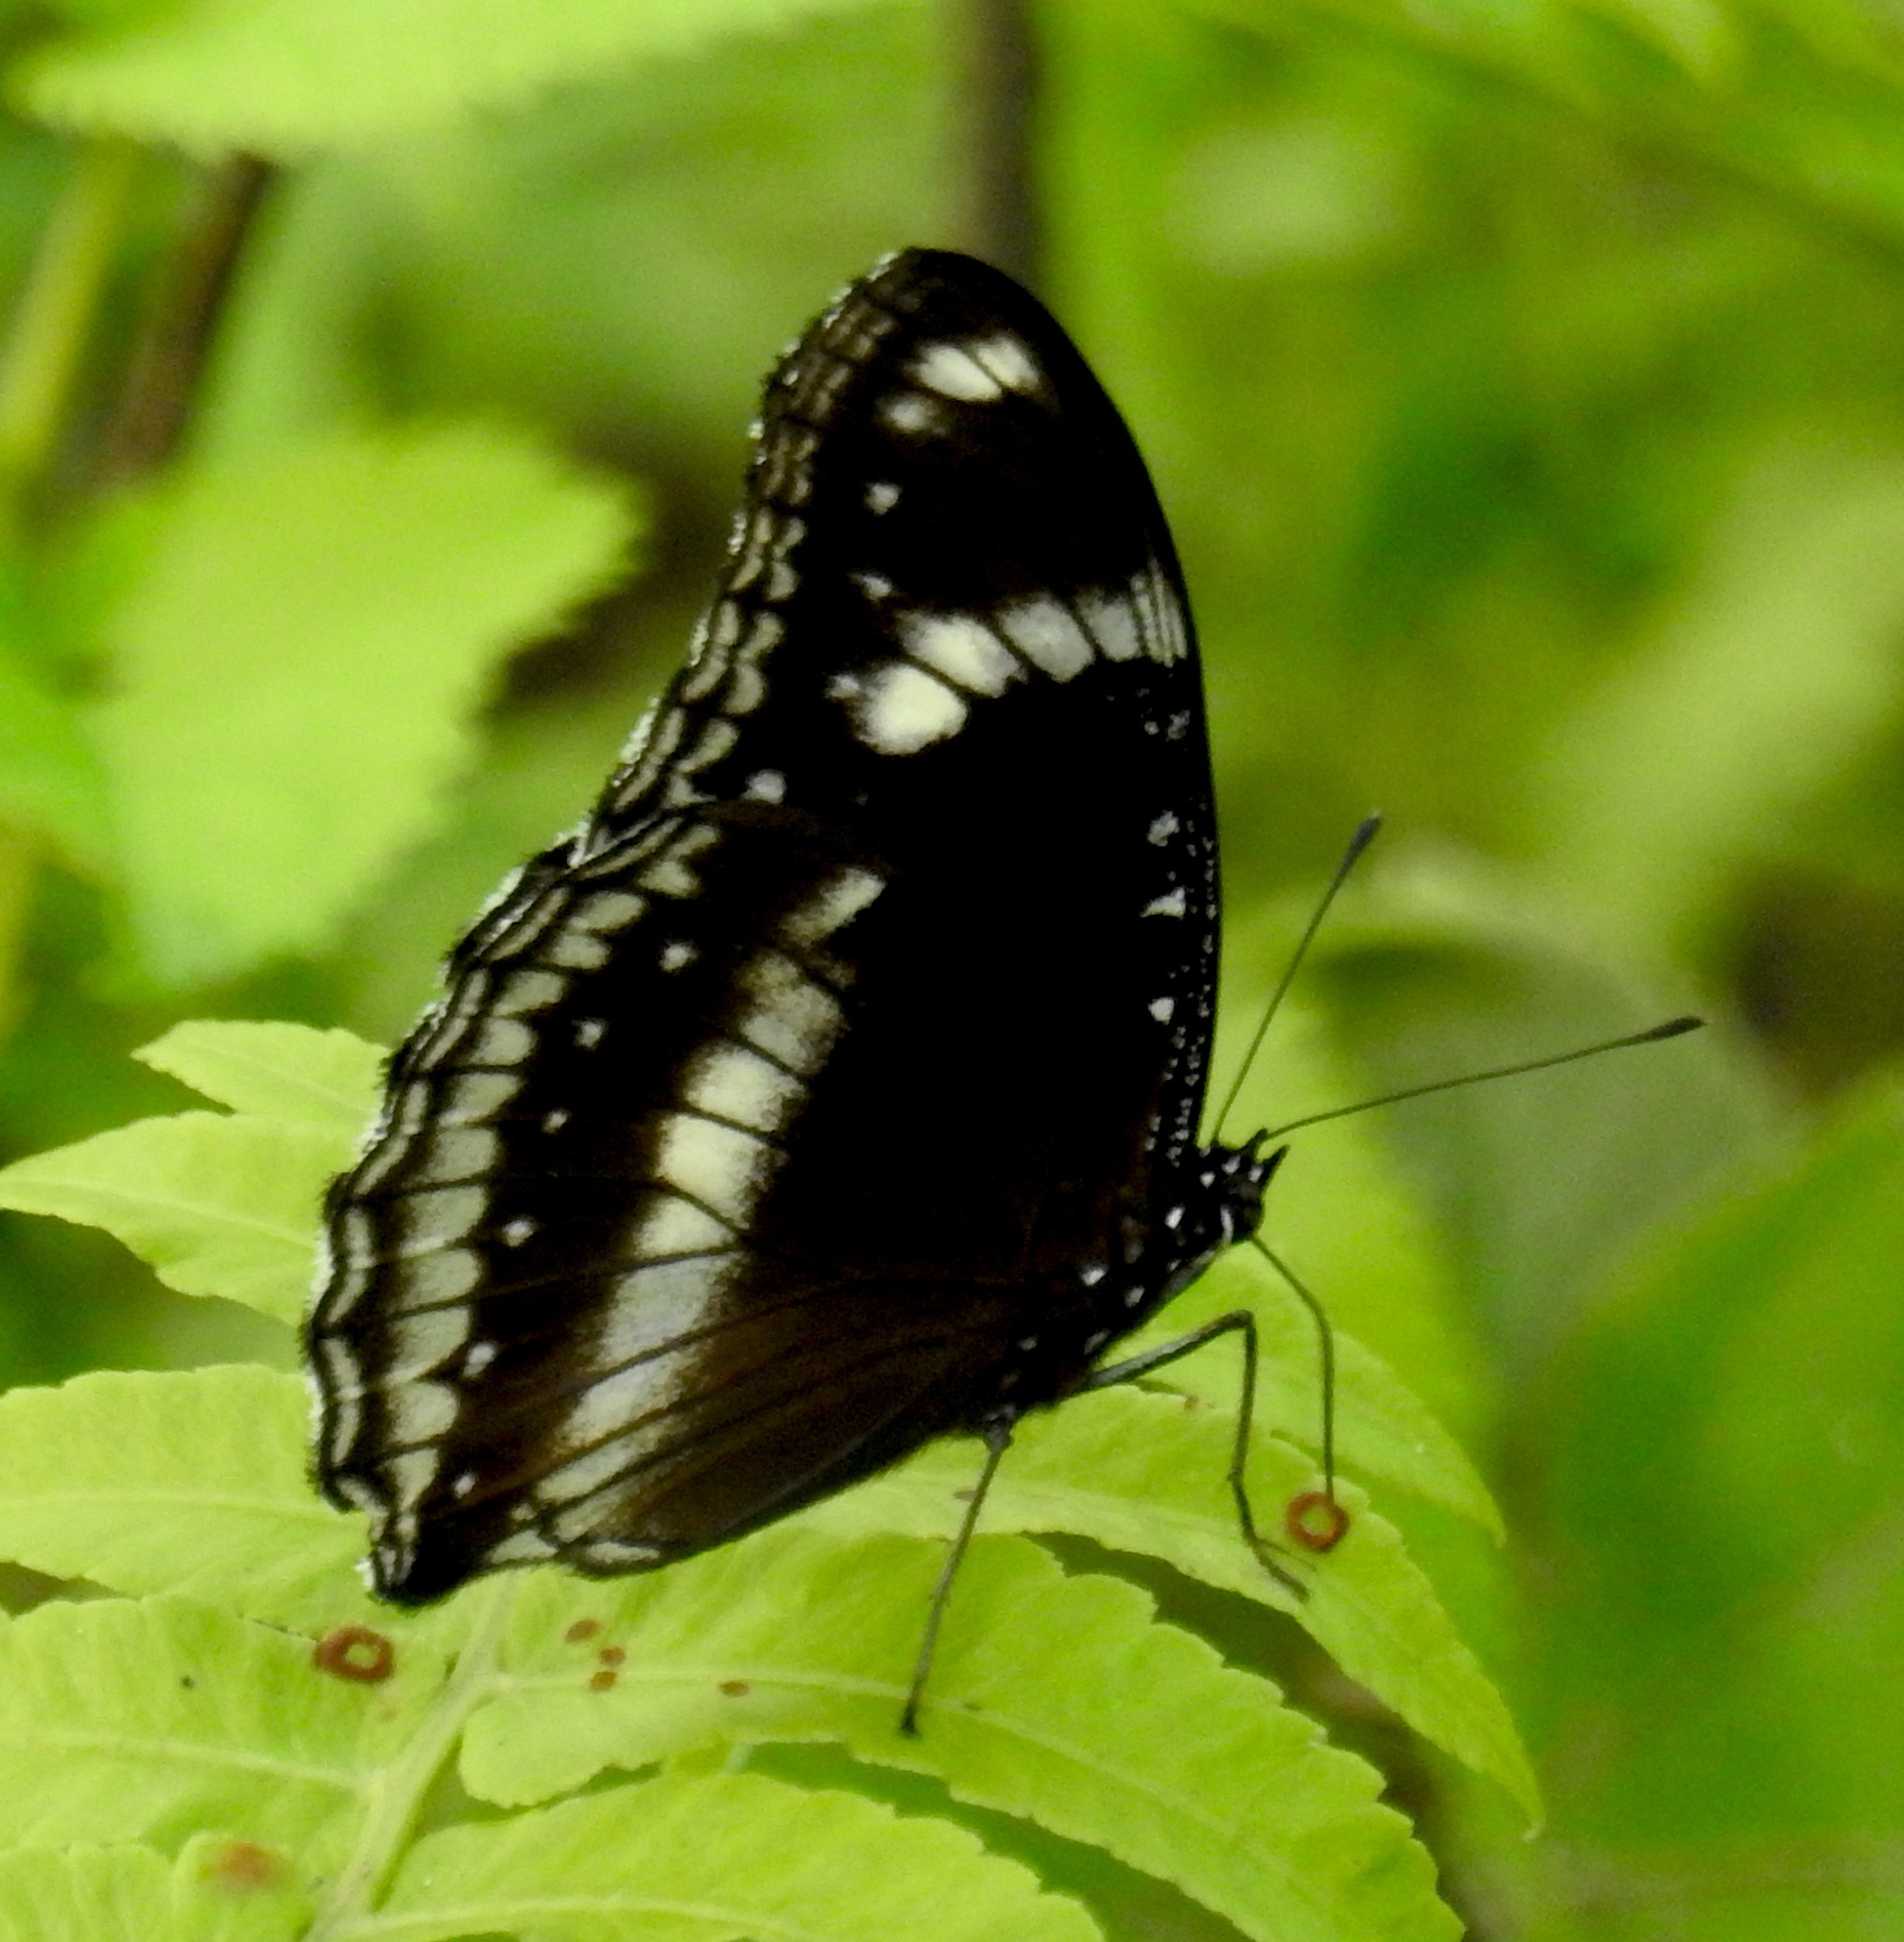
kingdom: Animalia
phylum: Arthropoda
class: Insecta
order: Lepidoptera
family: Nymphalidae
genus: Hypolimnas
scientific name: Hypolimnas bolina
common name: Great eggfly
